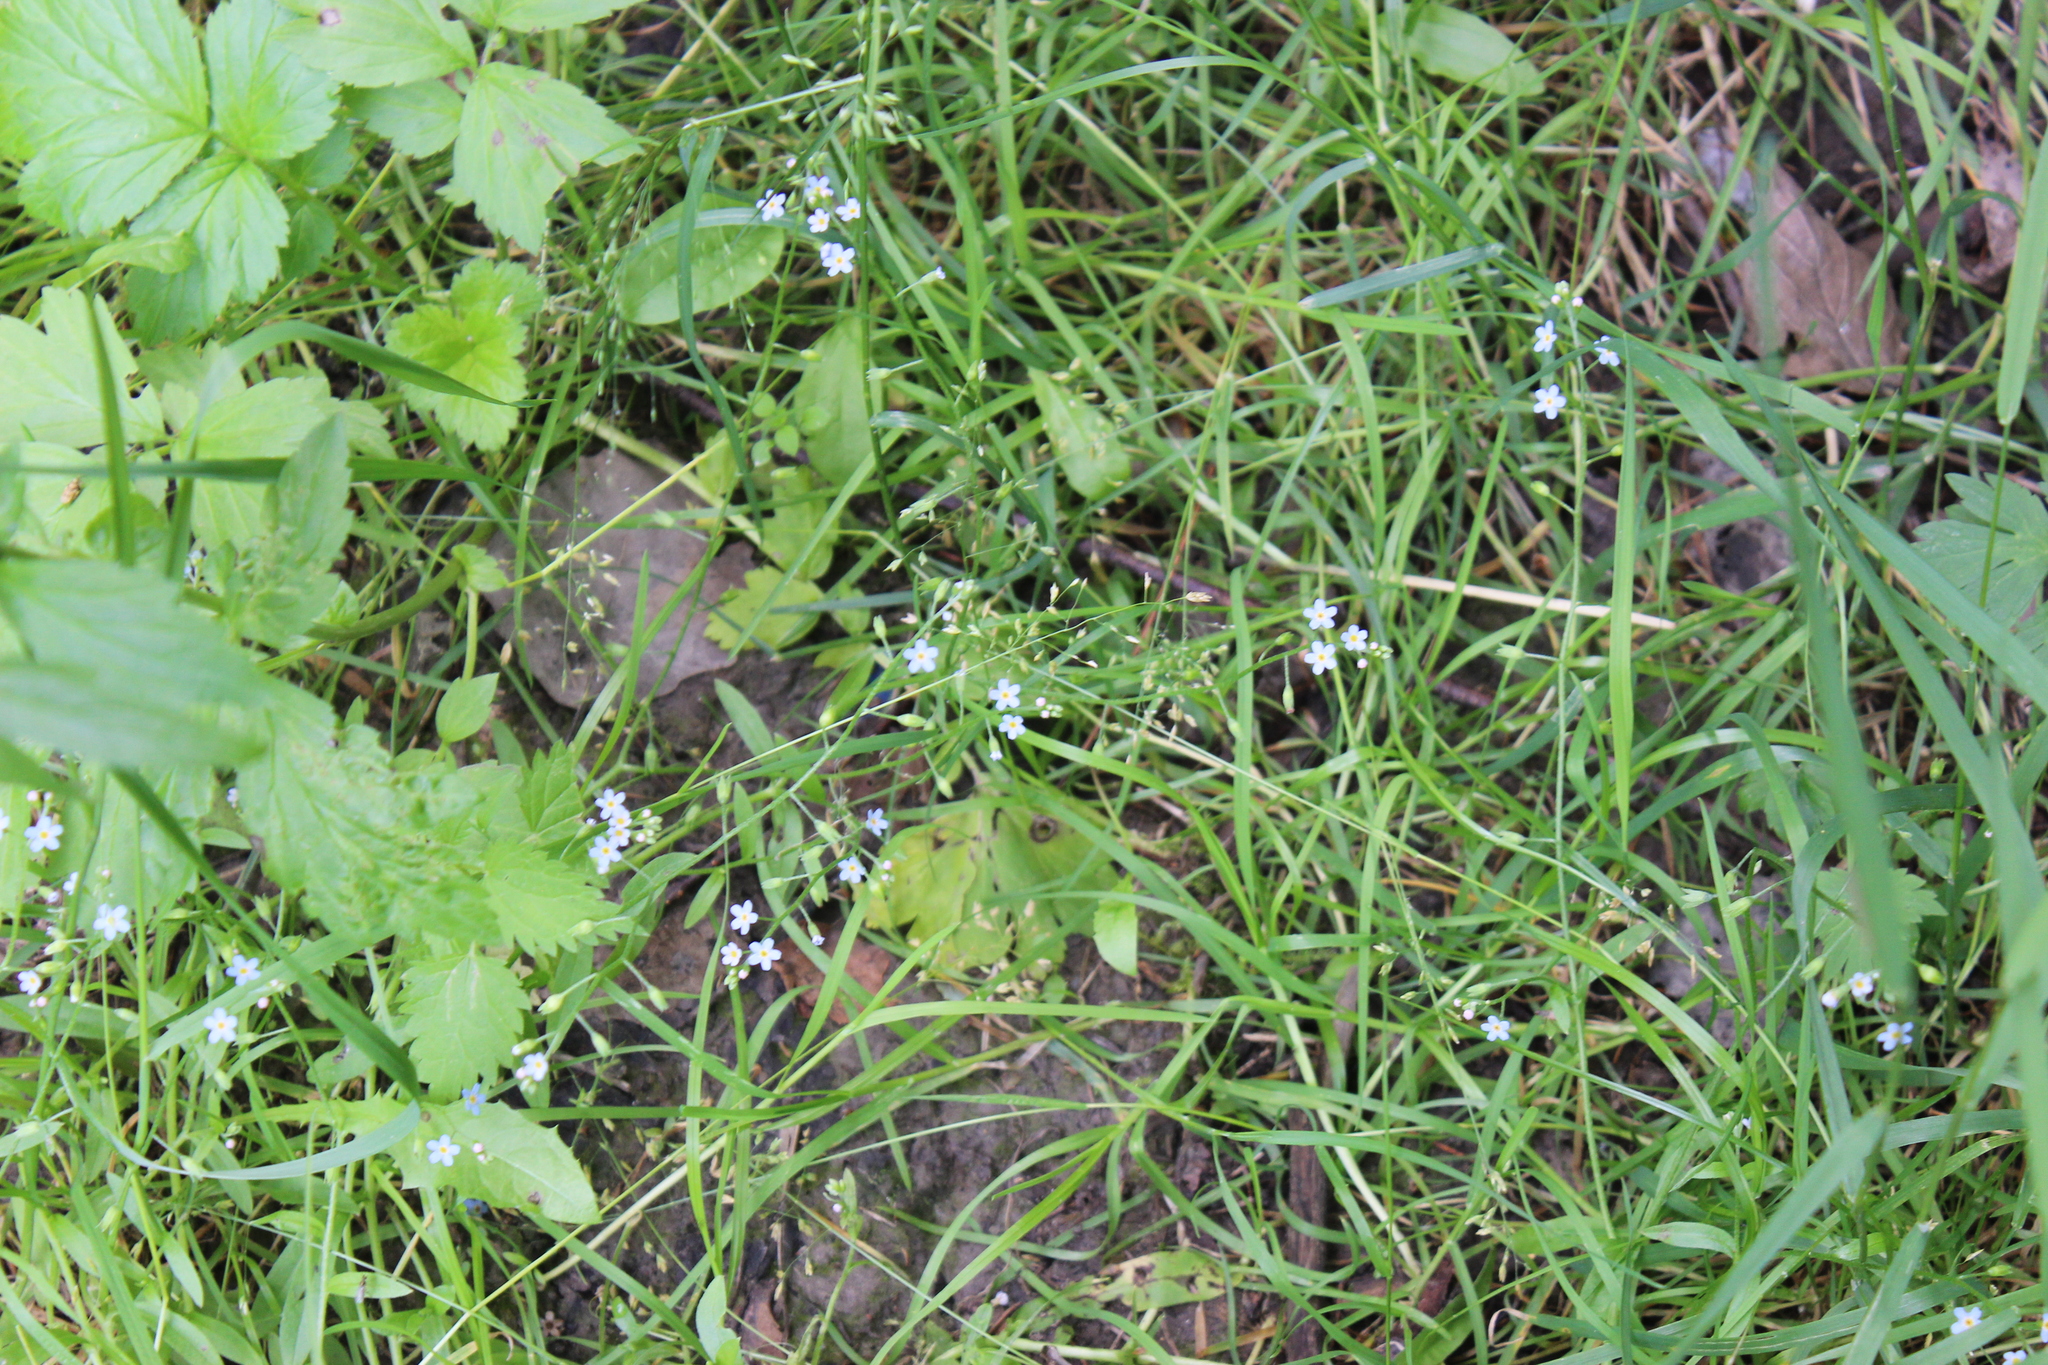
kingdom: Plantae
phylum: Tracheophyta
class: Magnoliopsida
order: Boraginales
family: Boraginaceae
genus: Myosotis
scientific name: Myosotis scorpioides
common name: Water forget-me-not
